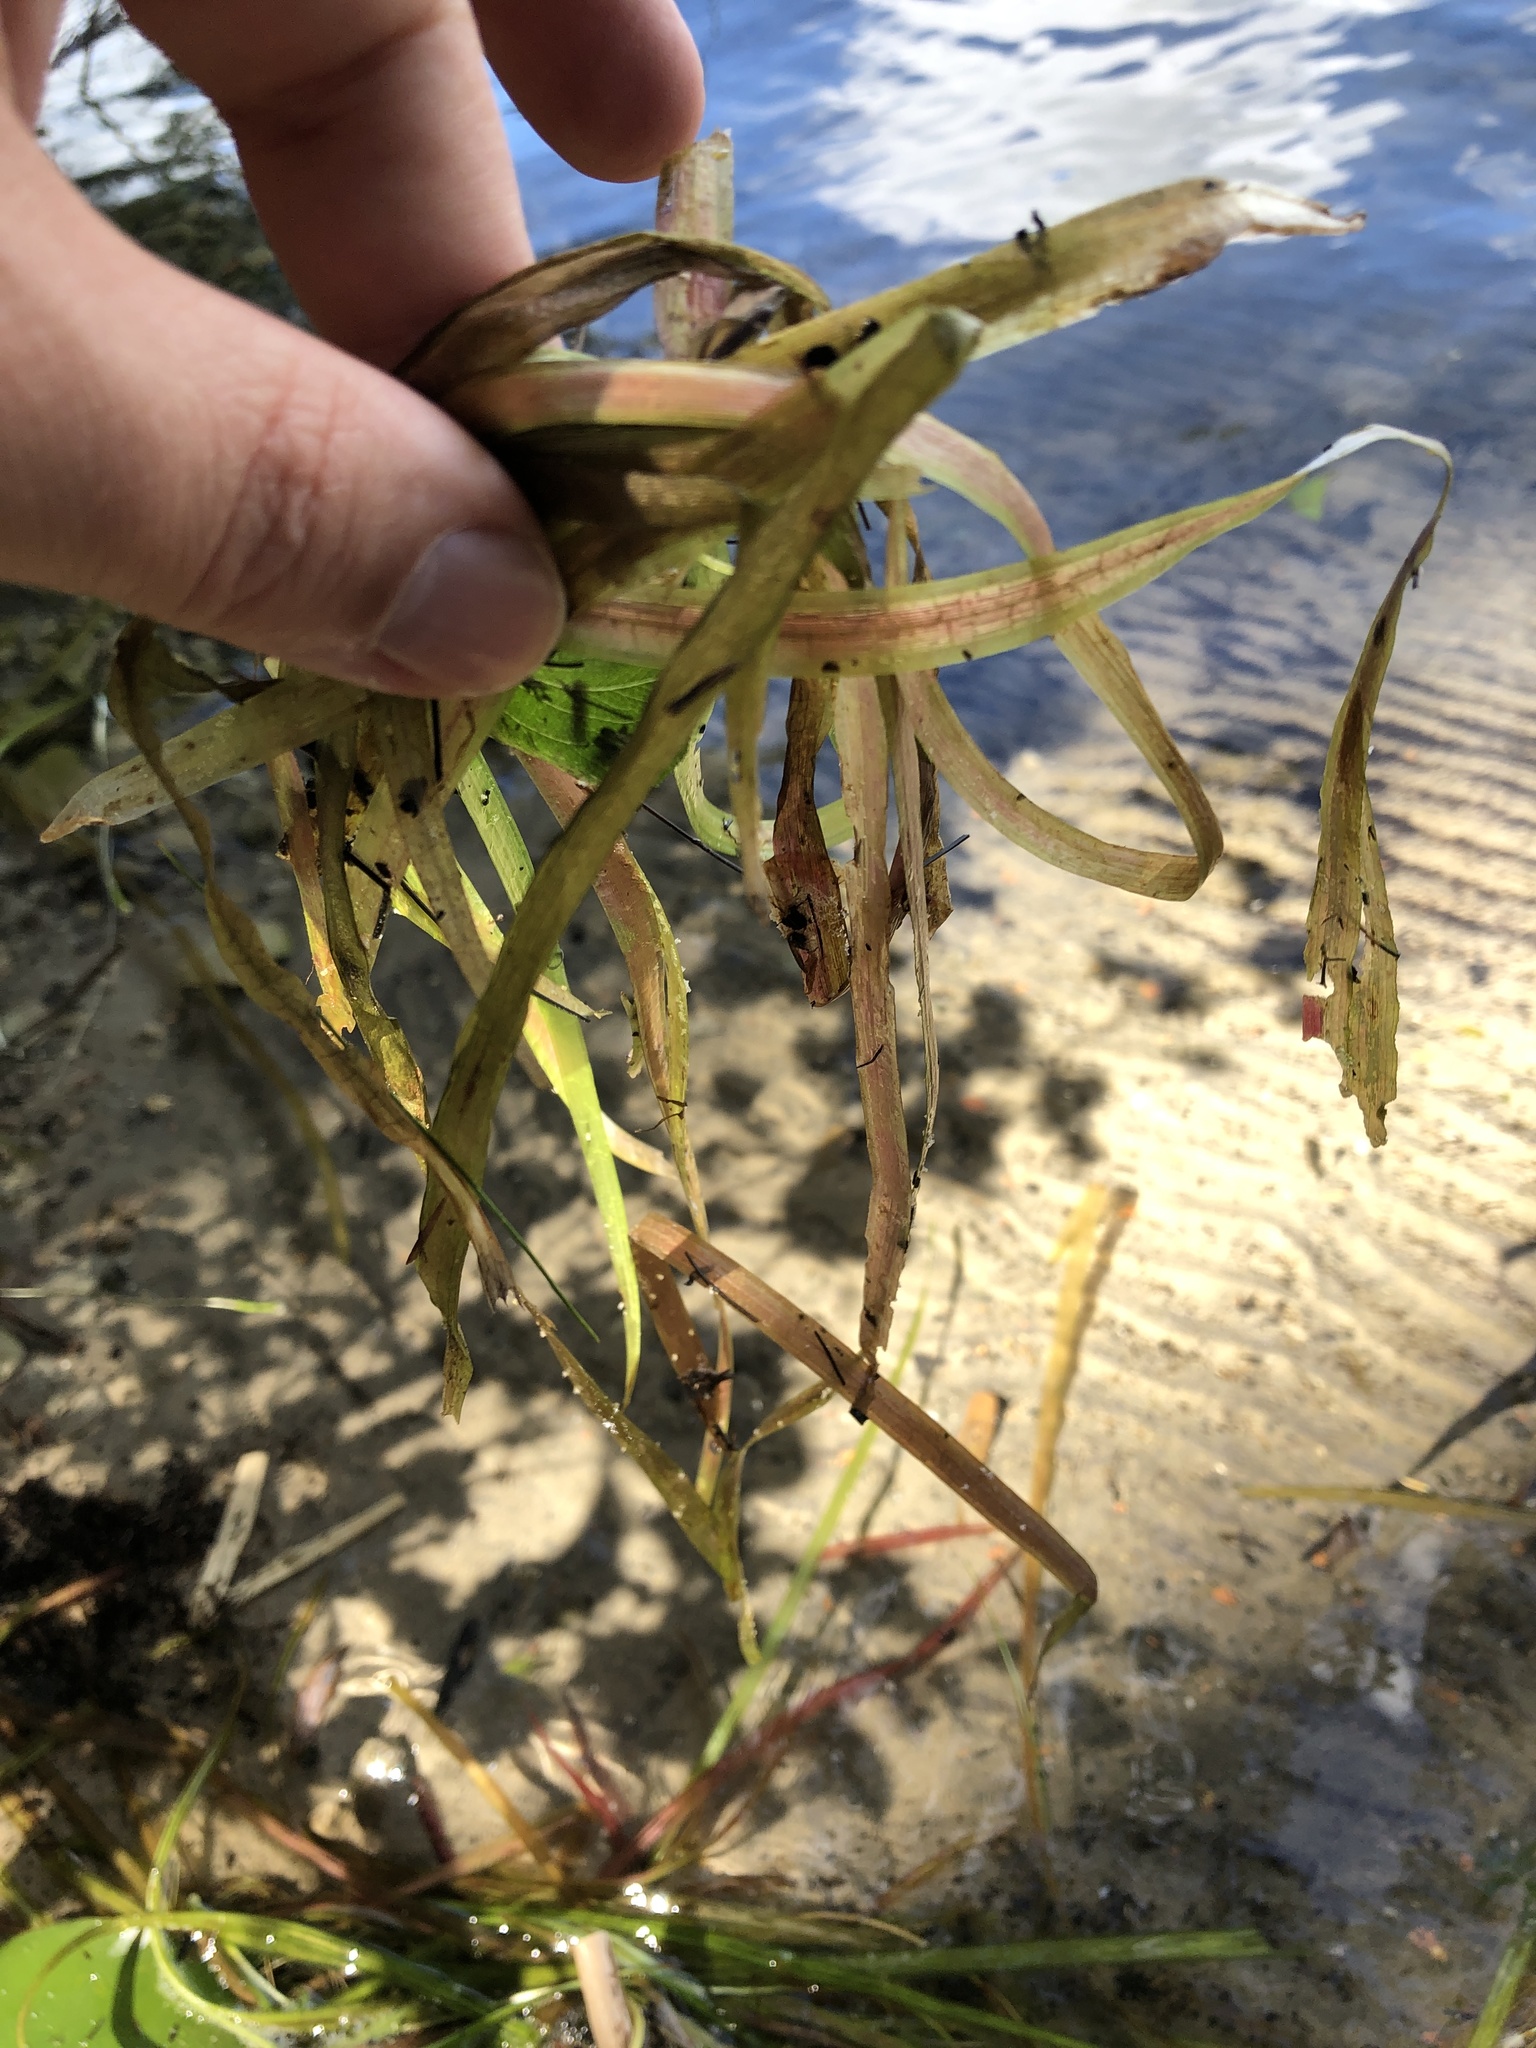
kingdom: Plantae
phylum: Tracheophyta
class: Liliopsida
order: Alismatales
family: Hydrocharitaceae
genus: Vallisneria
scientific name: Vallisneria americana
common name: American eelgrass
